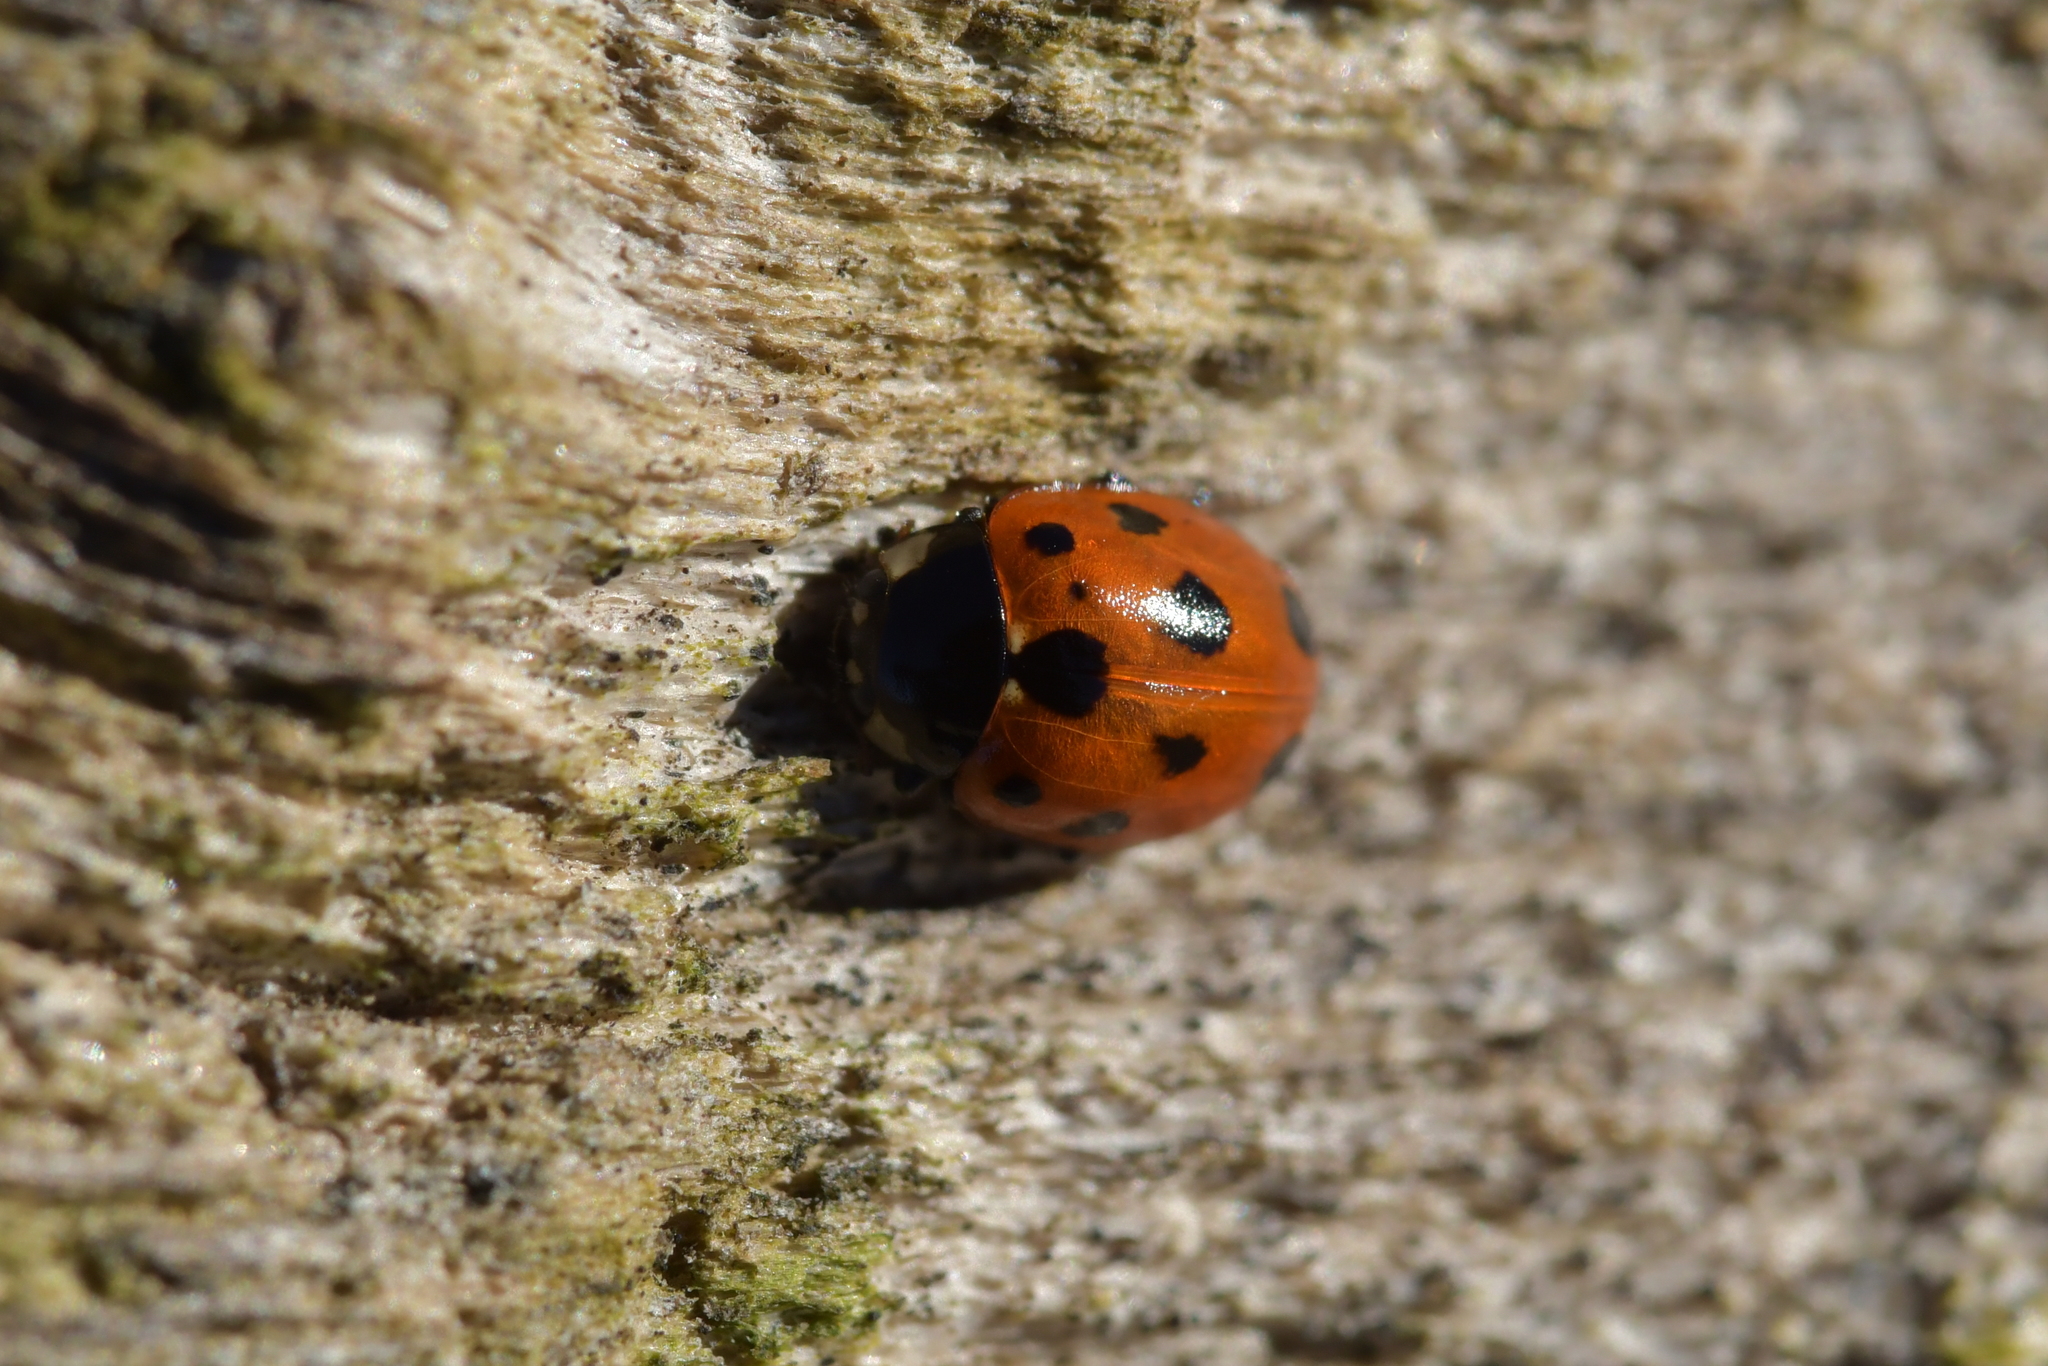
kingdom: Animalia
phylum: Arthropoda
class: Insecta
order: Coleoptera
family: Coccinellidae
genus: Coccinella
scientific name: Coccinella undecimpunctata
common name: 11-spot ladybird
